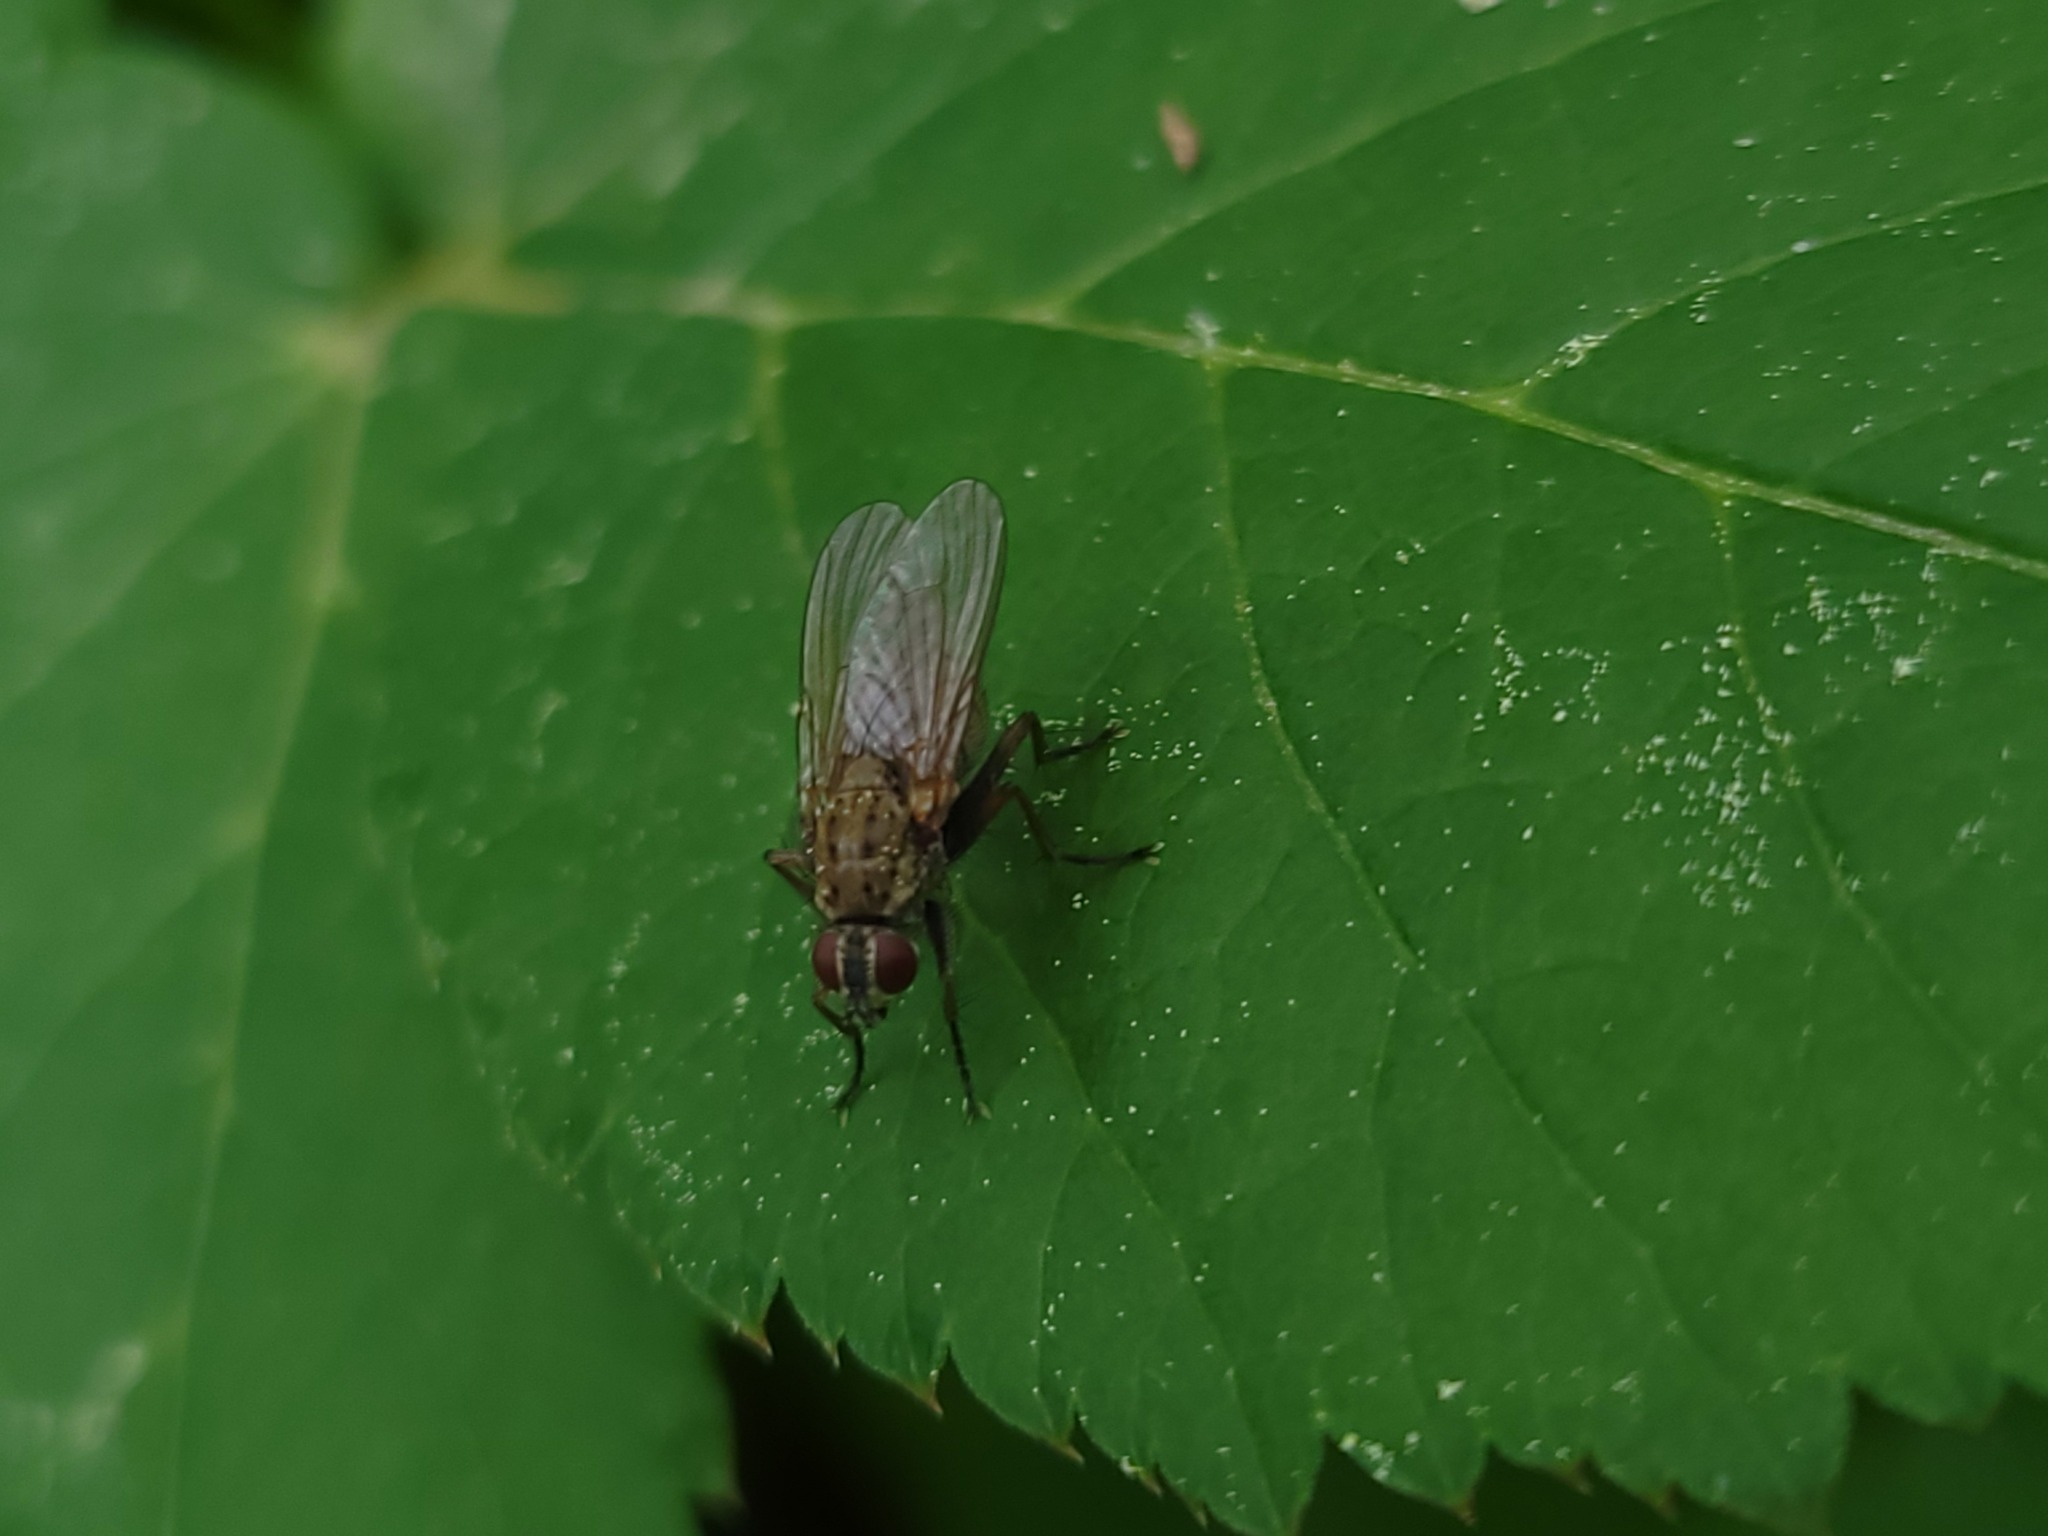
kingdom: Animalia
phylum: Arthropoda
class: Insecta
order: Diptera
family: Muscidae
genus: Coenosia
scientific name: Coenosia tigrina
